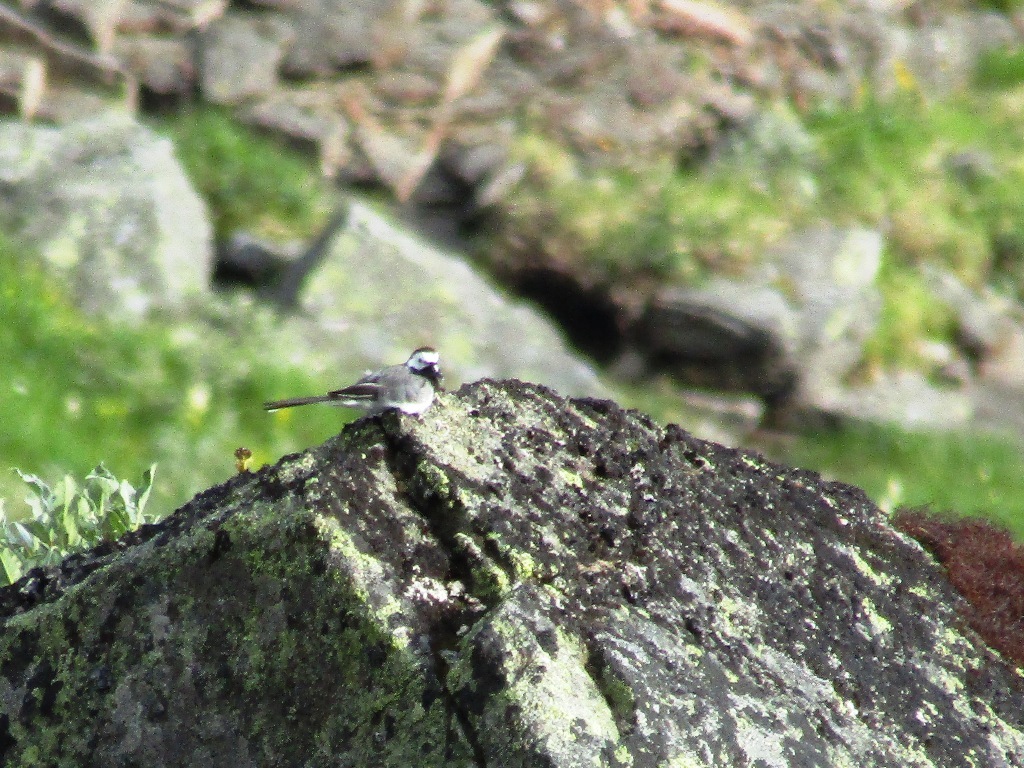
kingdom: Animalia
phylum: Chordata
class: Aves
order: Passeriformes
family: Motacillidae
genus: Motacilla
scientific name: Motacilla alba
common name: White wagtail
